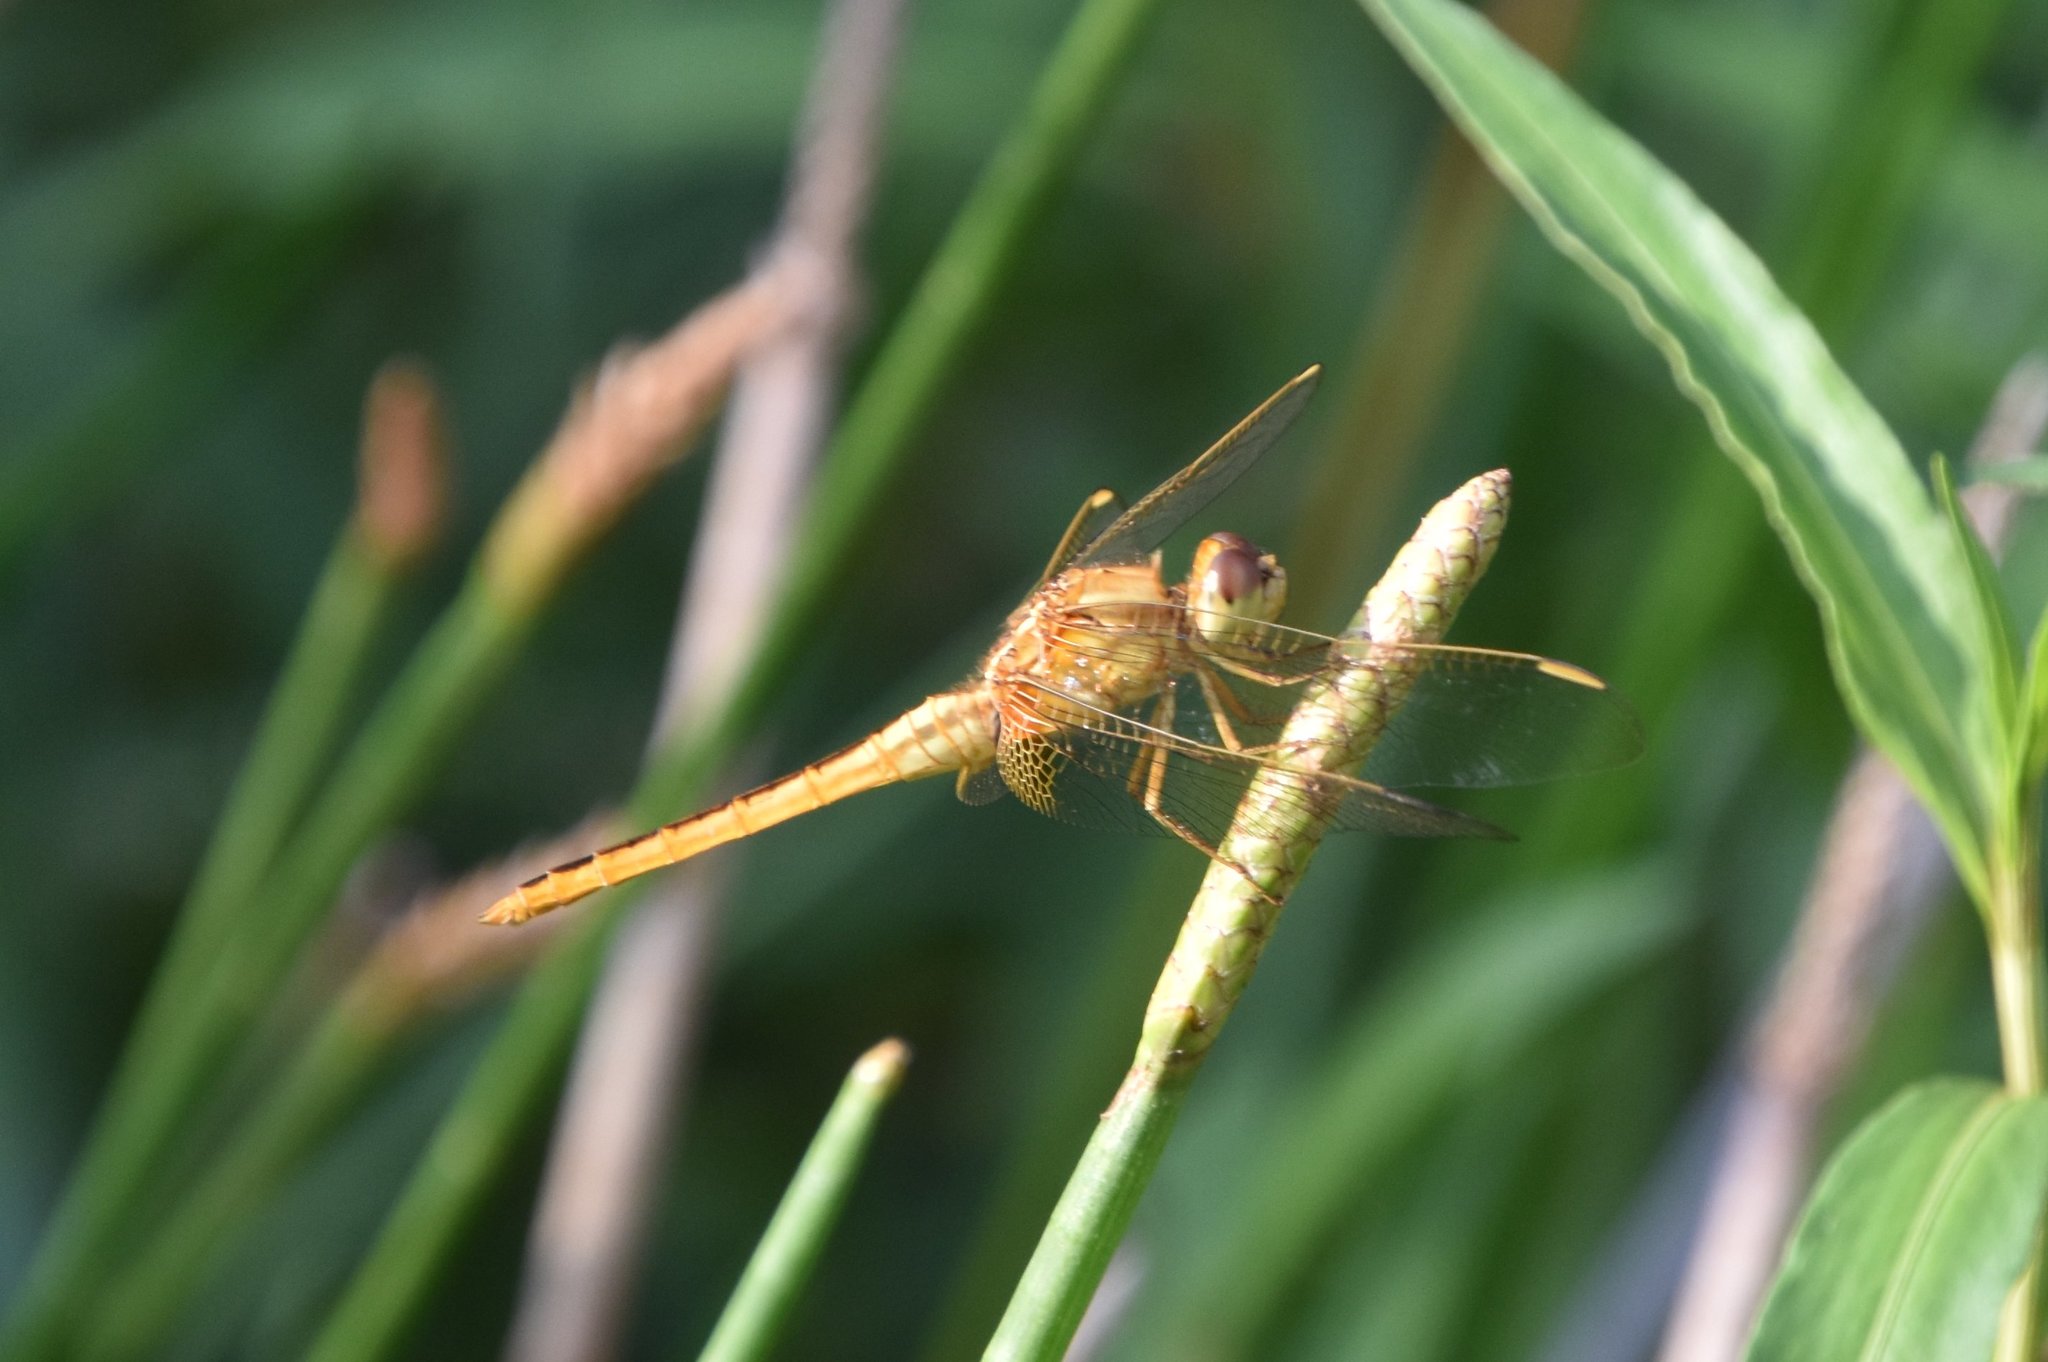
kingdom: Animalia
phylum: Arthropoda
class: Insecta
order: Odonata
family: Libellulidae
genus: Crocothemis
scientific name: Crocothemis servilia
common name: Scarlet skimmer
